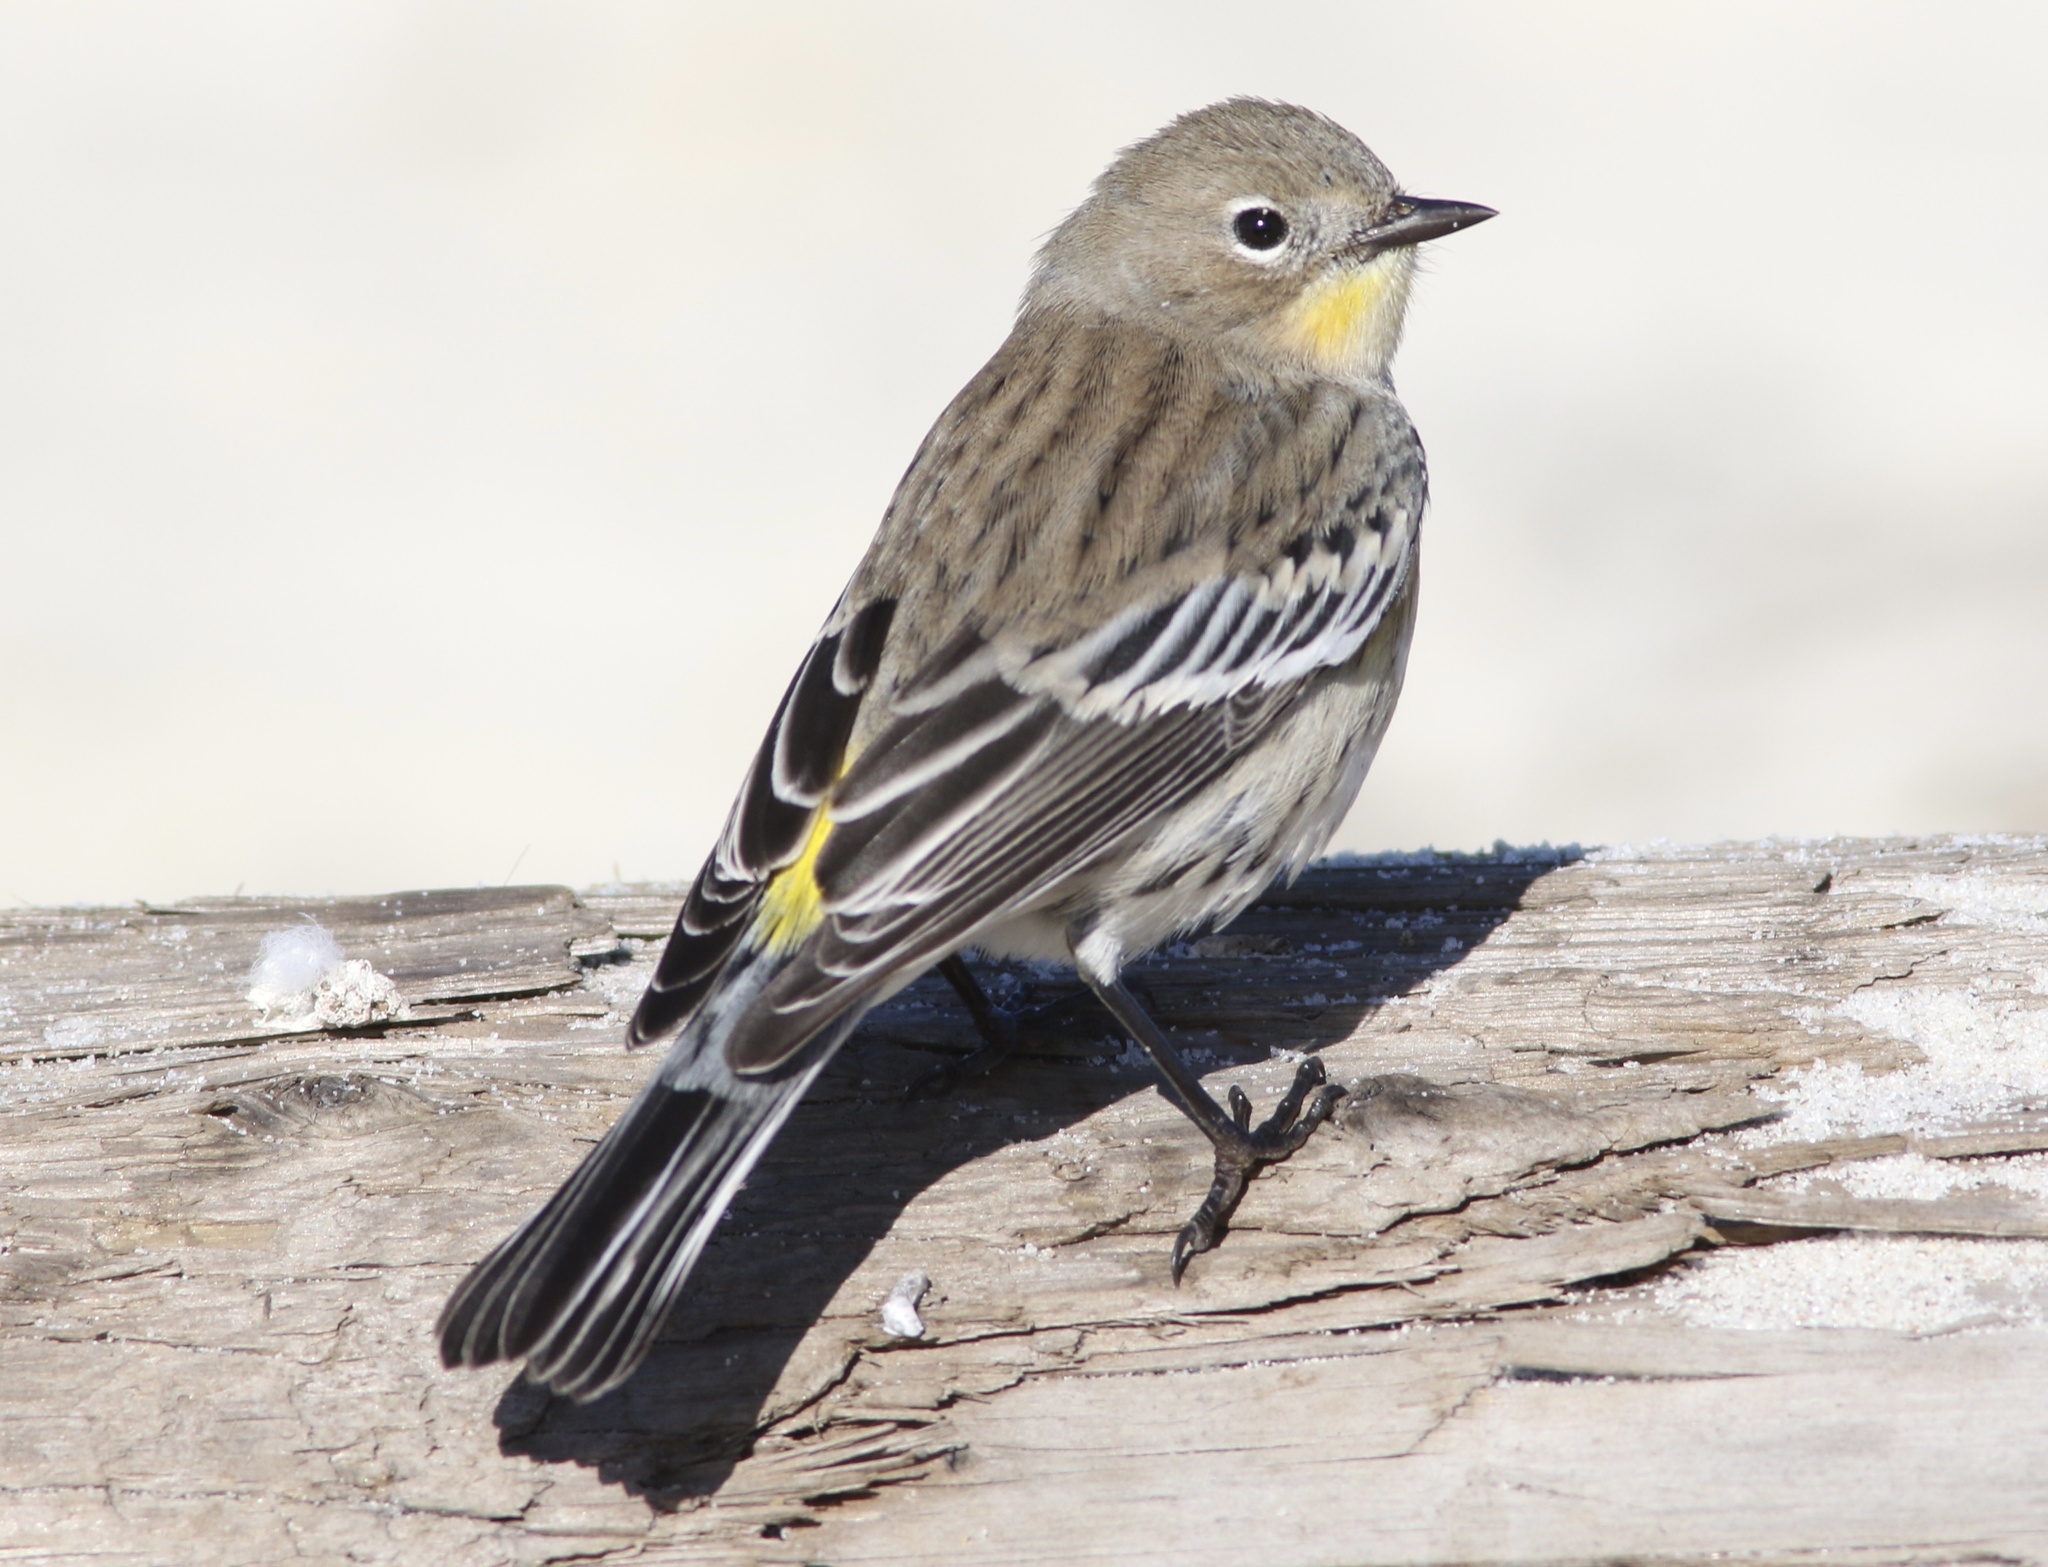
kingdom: Animalia
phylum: Chordata
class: Aves
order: Passeriformes
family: Parulidae
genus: Setophaga
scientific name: Setophaga coronata
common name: Myrtle warbler
